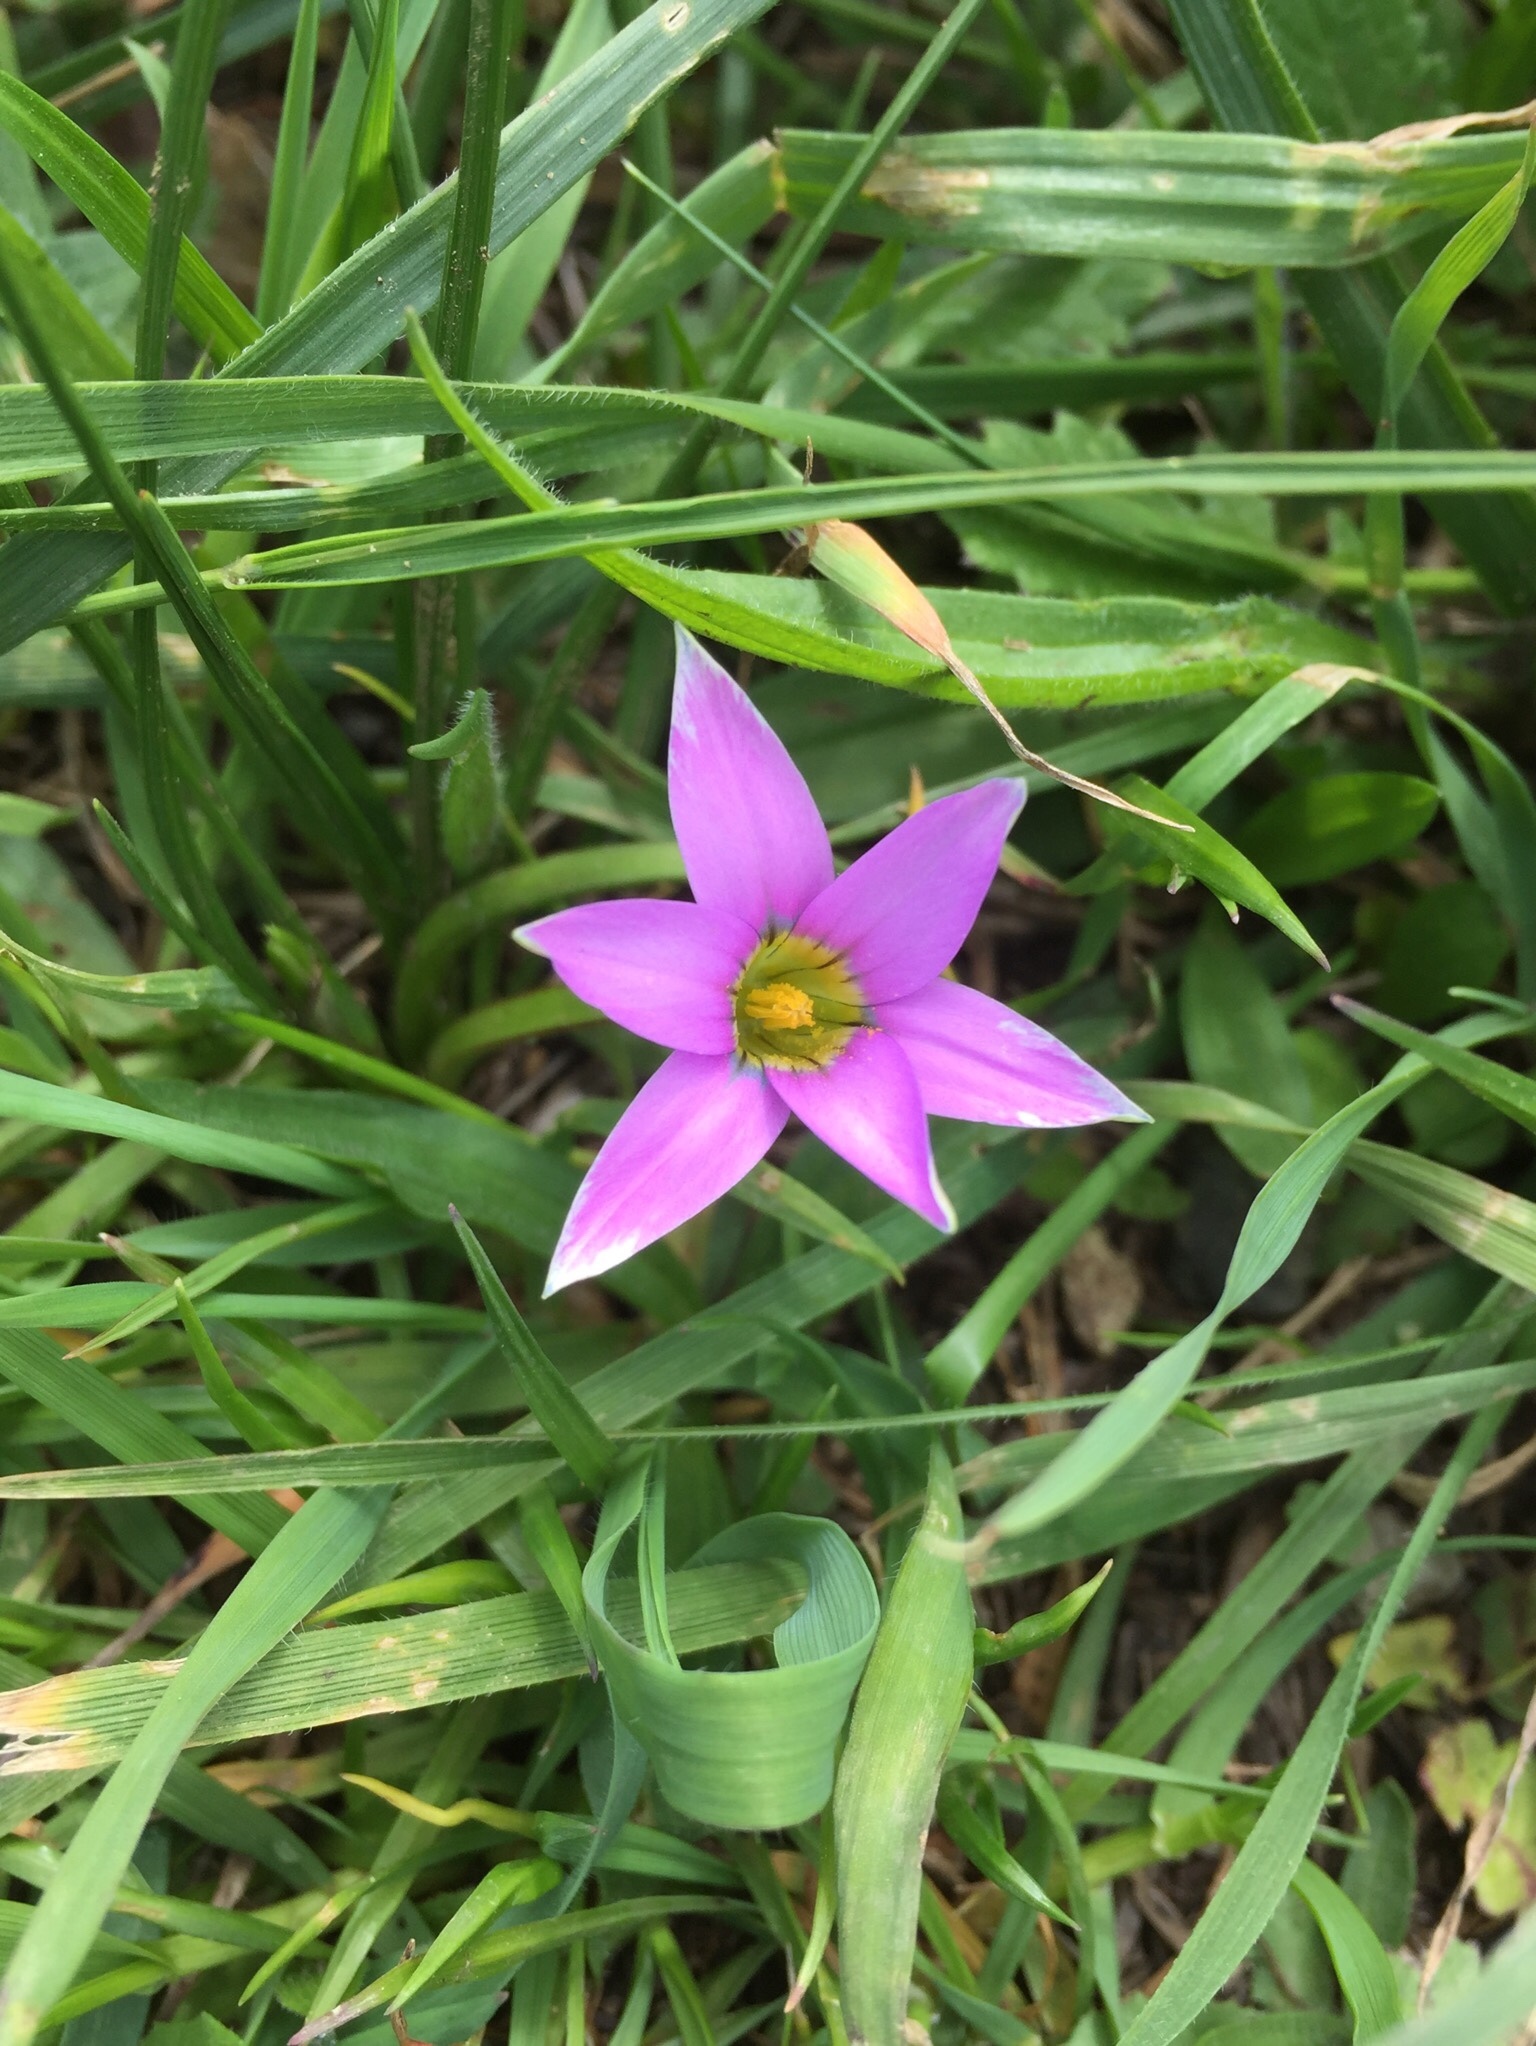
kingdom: Plantae
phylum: Tracheophyta
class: Liliopsida
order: Asparagales
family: Iridaceae
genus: Romulea
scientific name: Romulea rosea
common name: Oniongrass
